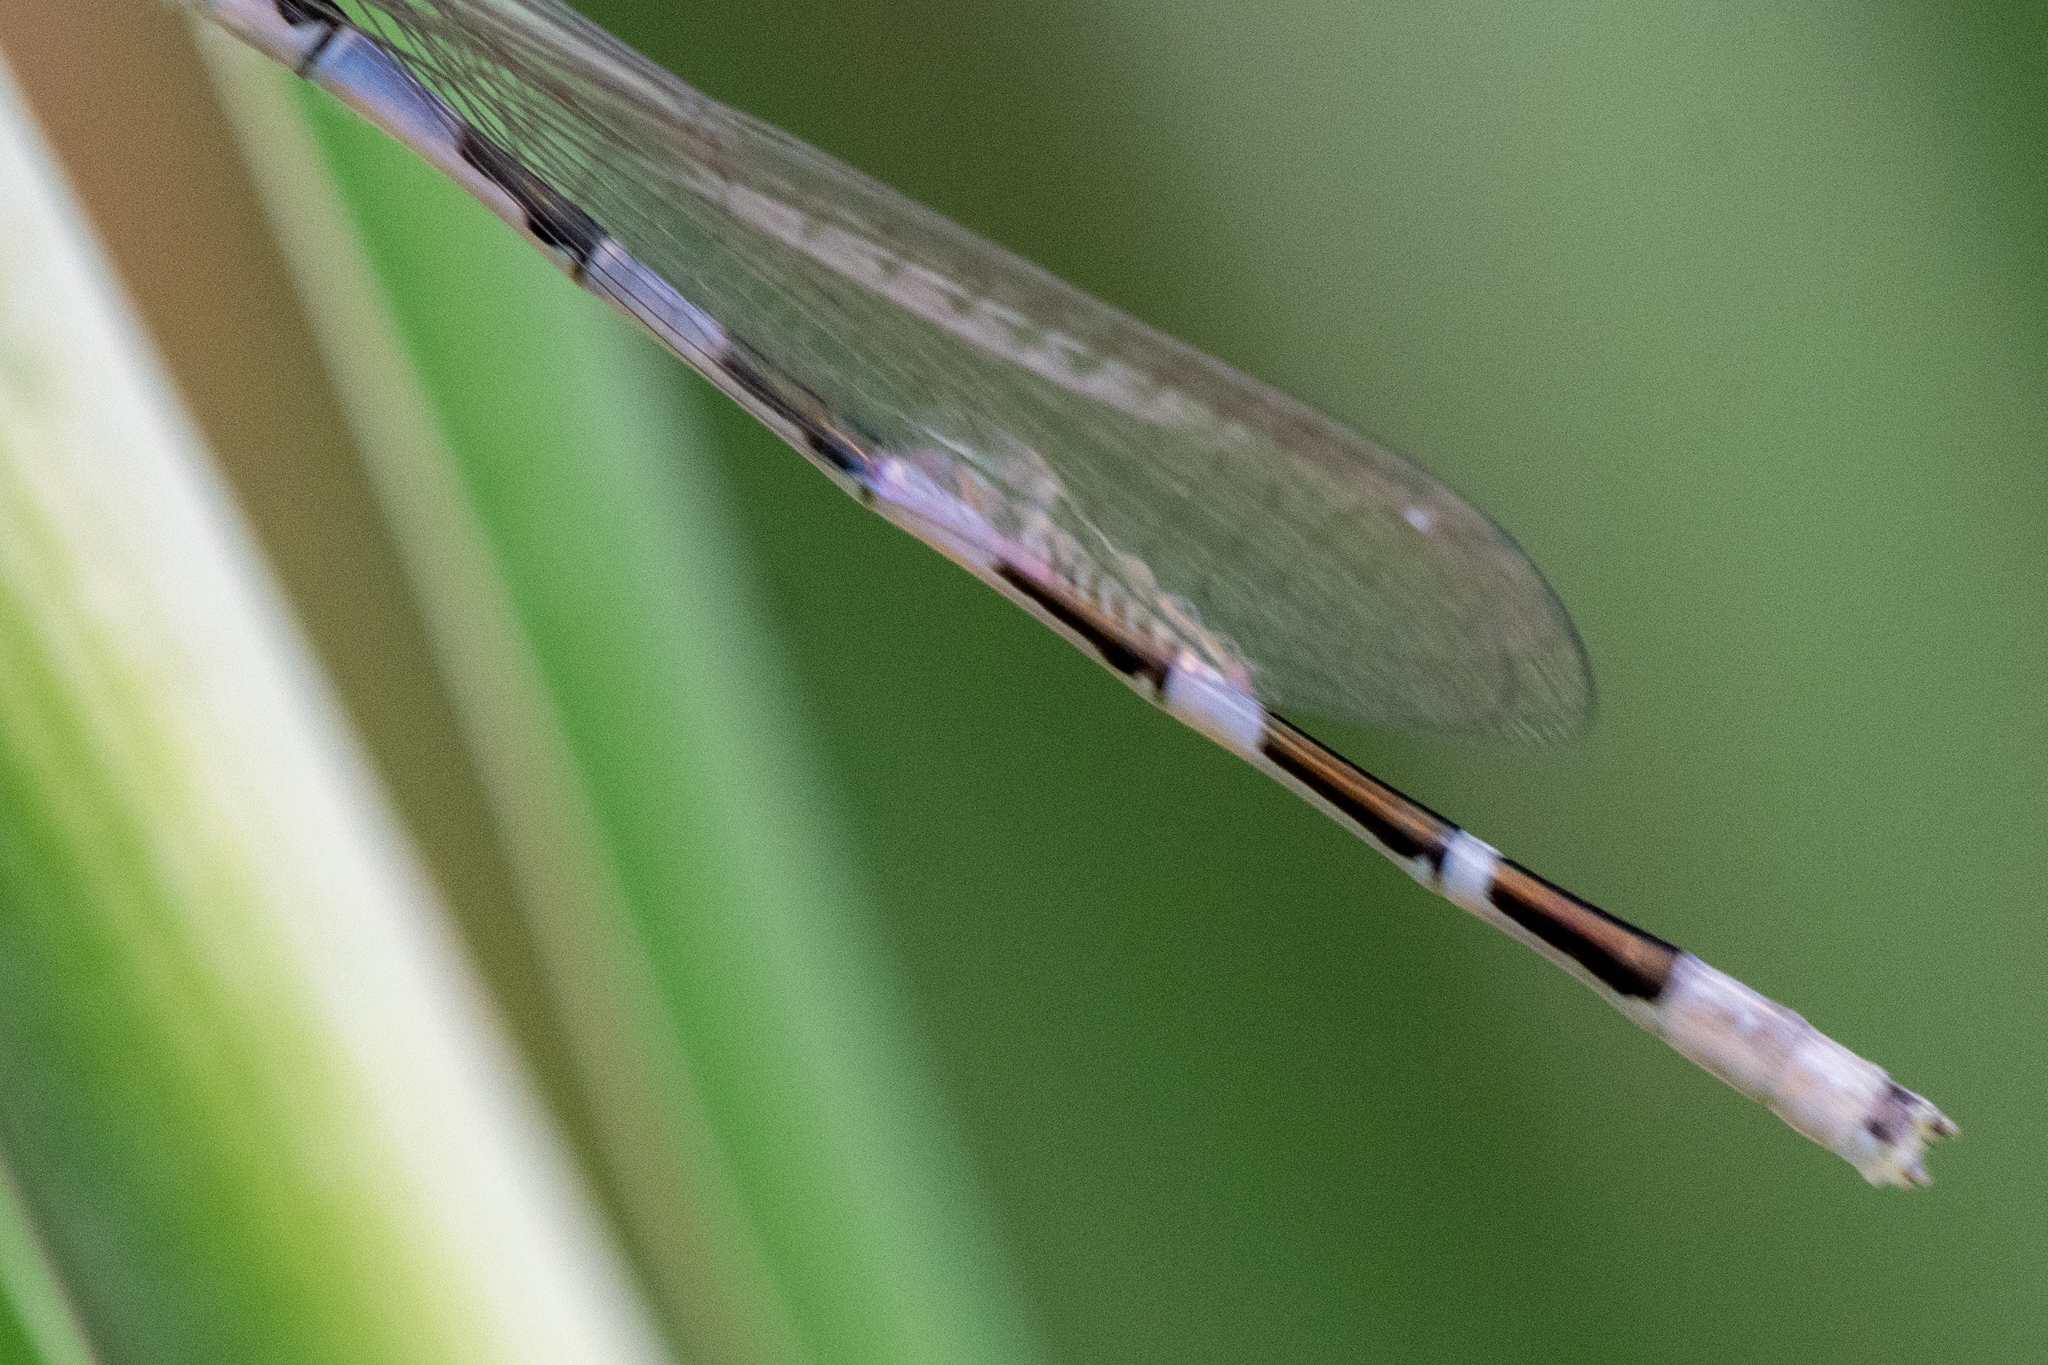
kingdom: Animalia
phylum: Arthropoda
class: Insecta
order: Odonata
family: Coenagrionidae
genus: Enallagma
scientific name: Enallagma carunculatum
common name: Tule bluet
